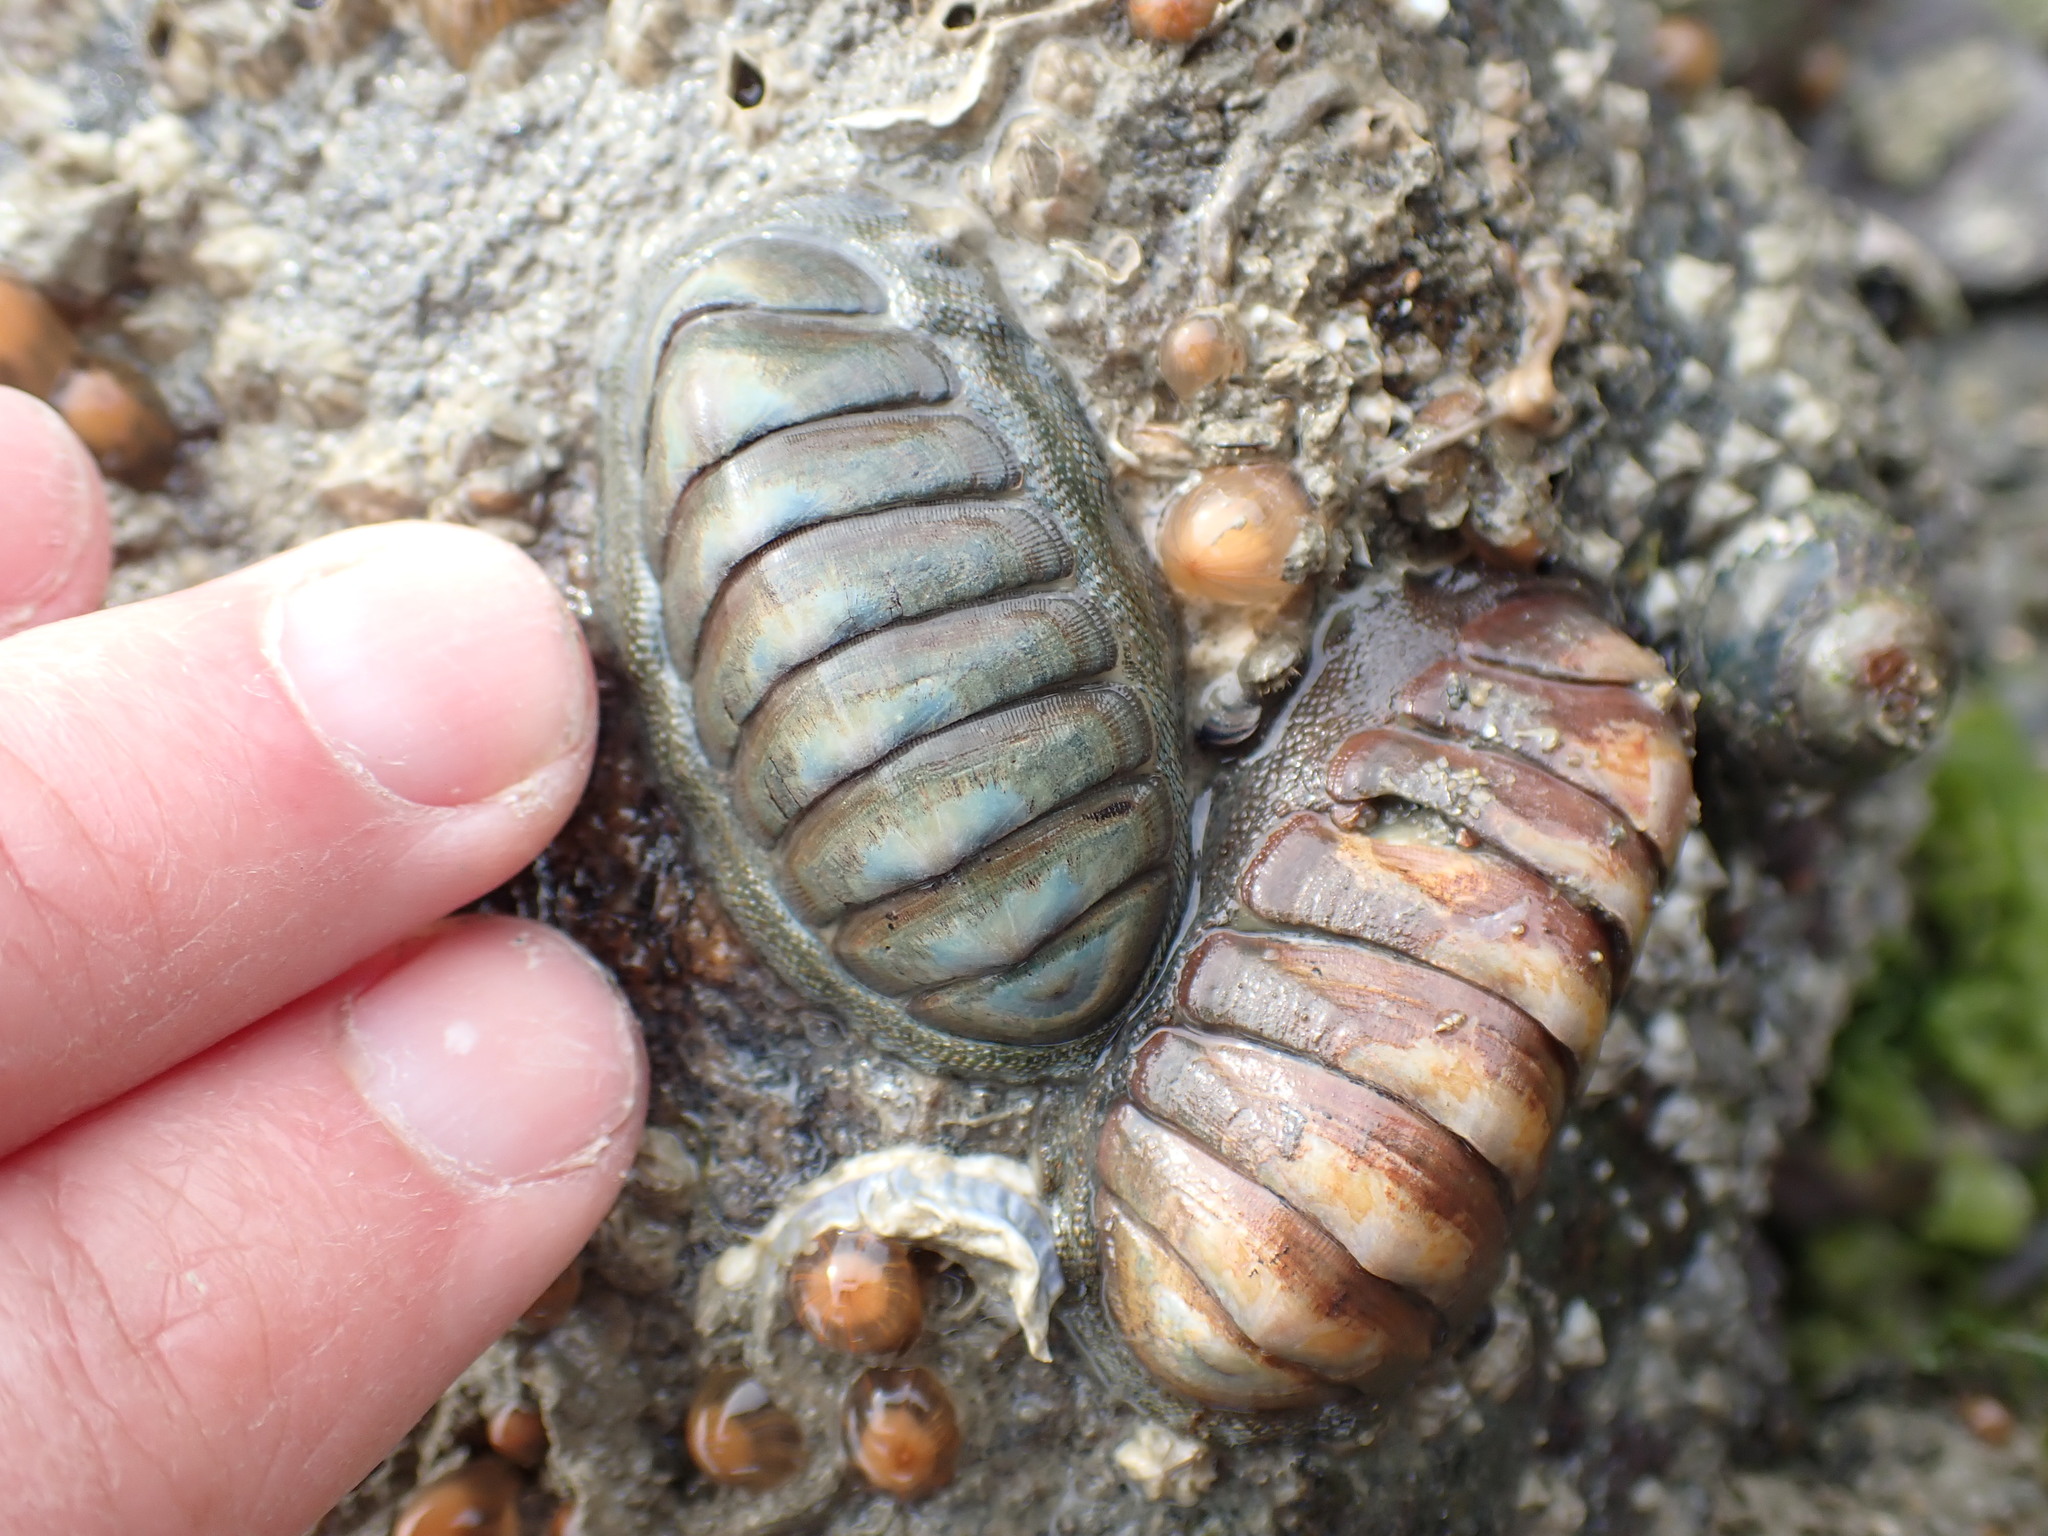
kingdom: Animalia
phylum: Mollusca
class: Polyplacophora
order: Chitonida
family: Chitonidae
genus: Chiton
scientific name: Chiton glaucus
